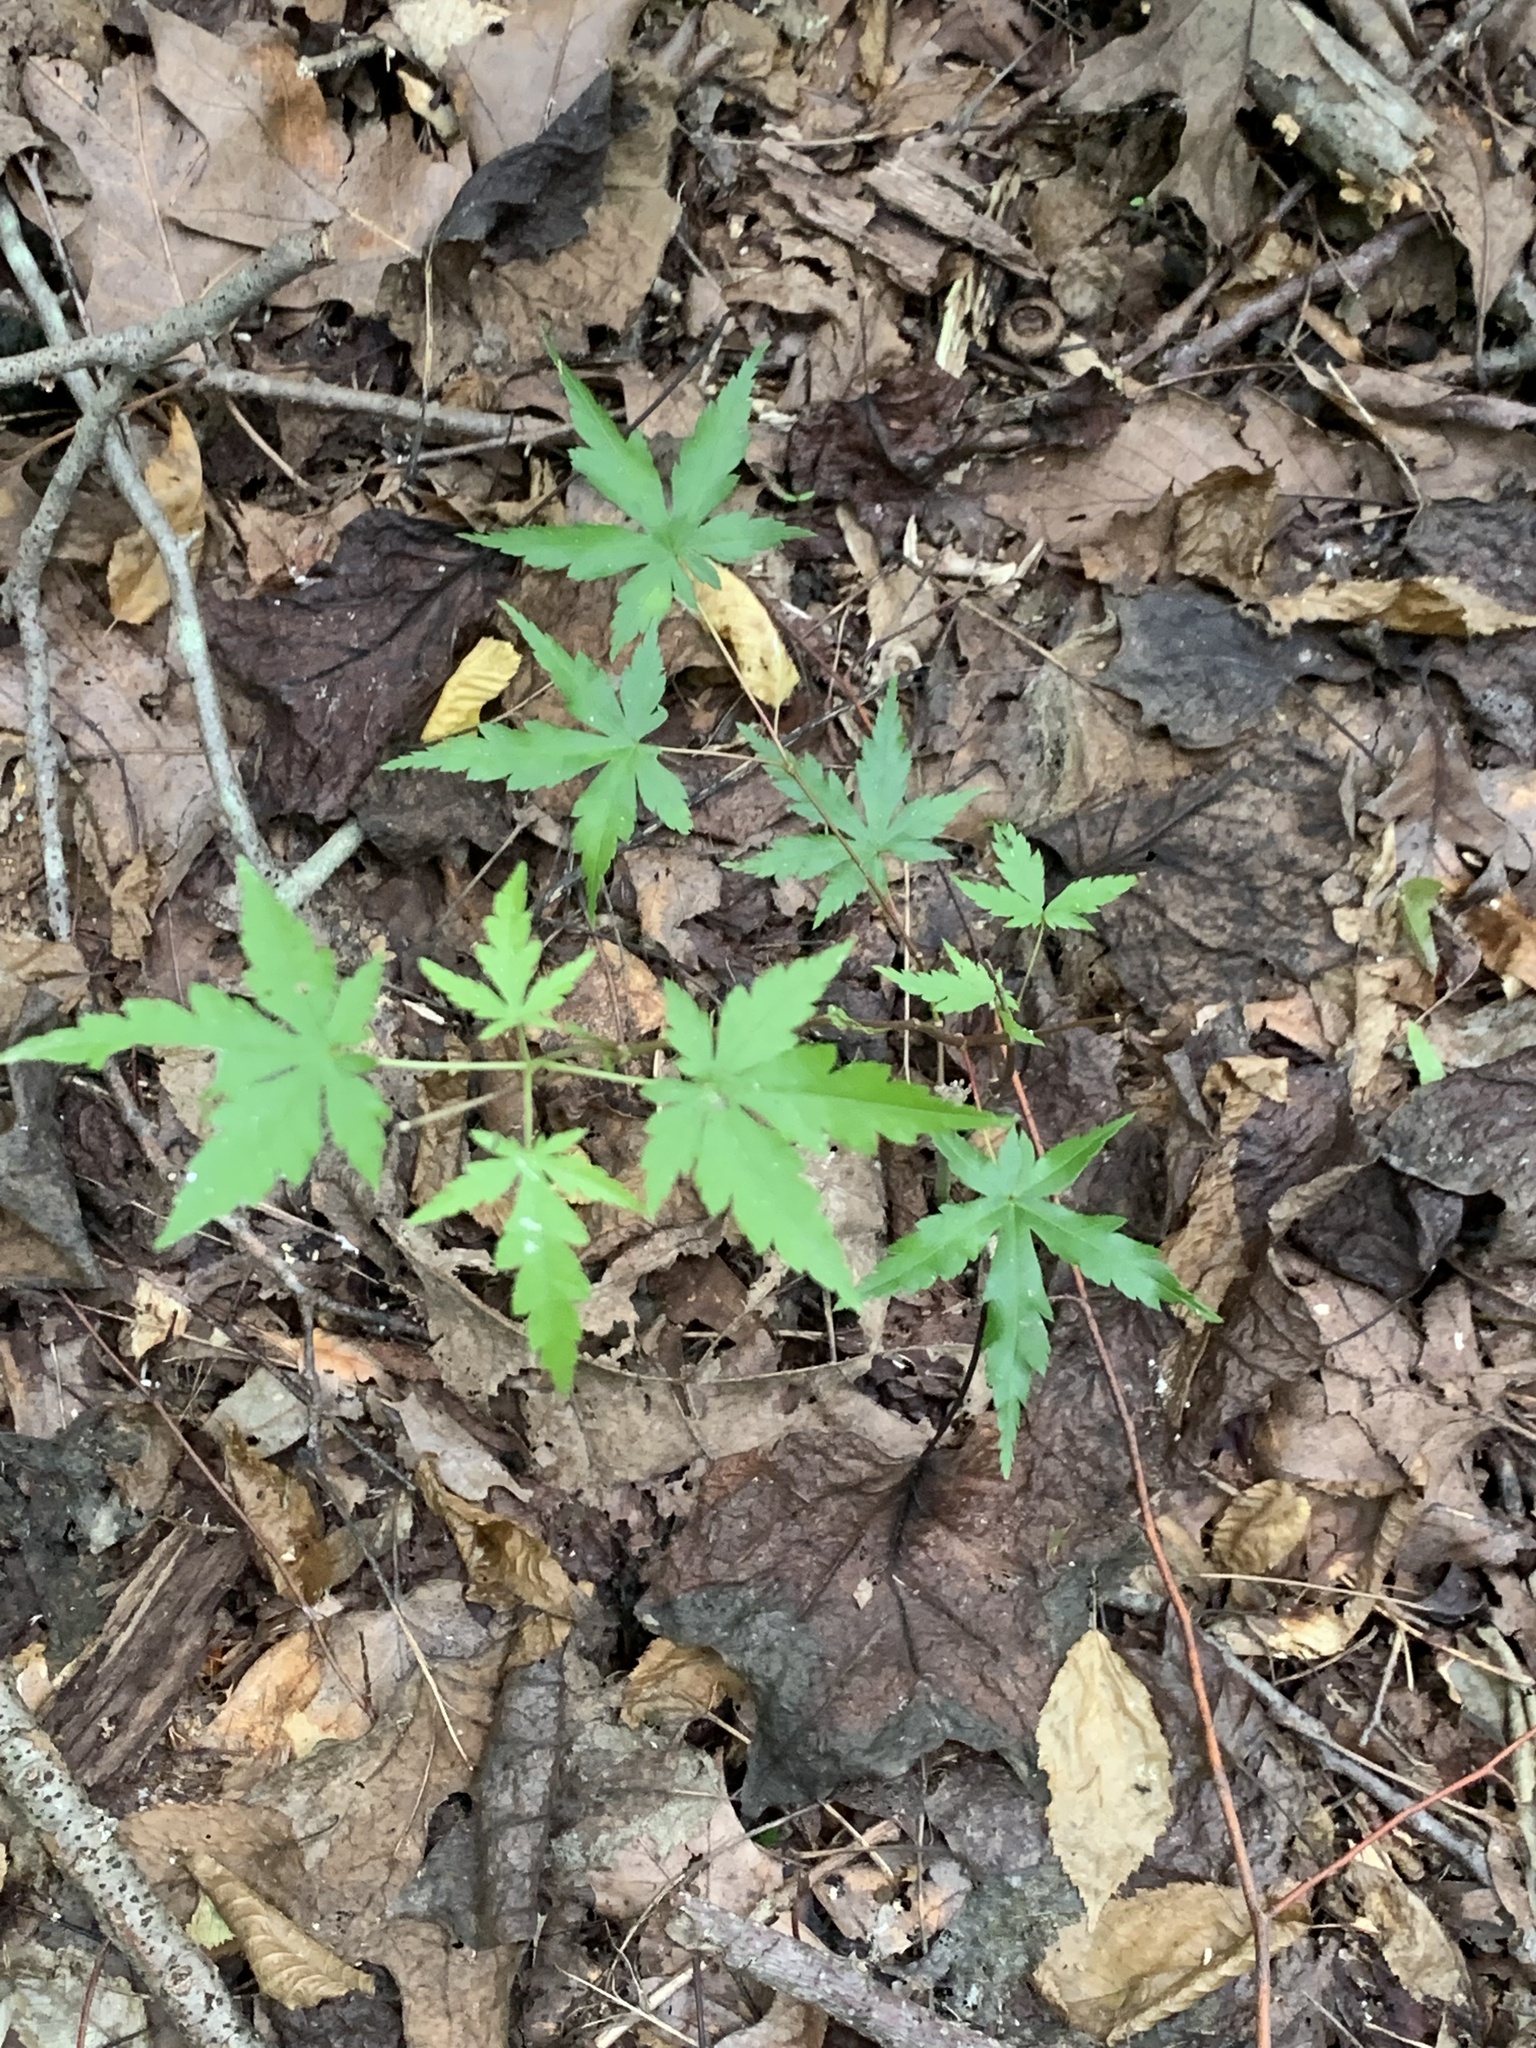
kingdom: Plantae
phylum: Tracheophyta
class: Magnoliopsida
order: Sapindales
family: Sapindaceae
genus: Acer
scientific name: Acer palmatum
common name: Japanese maple
